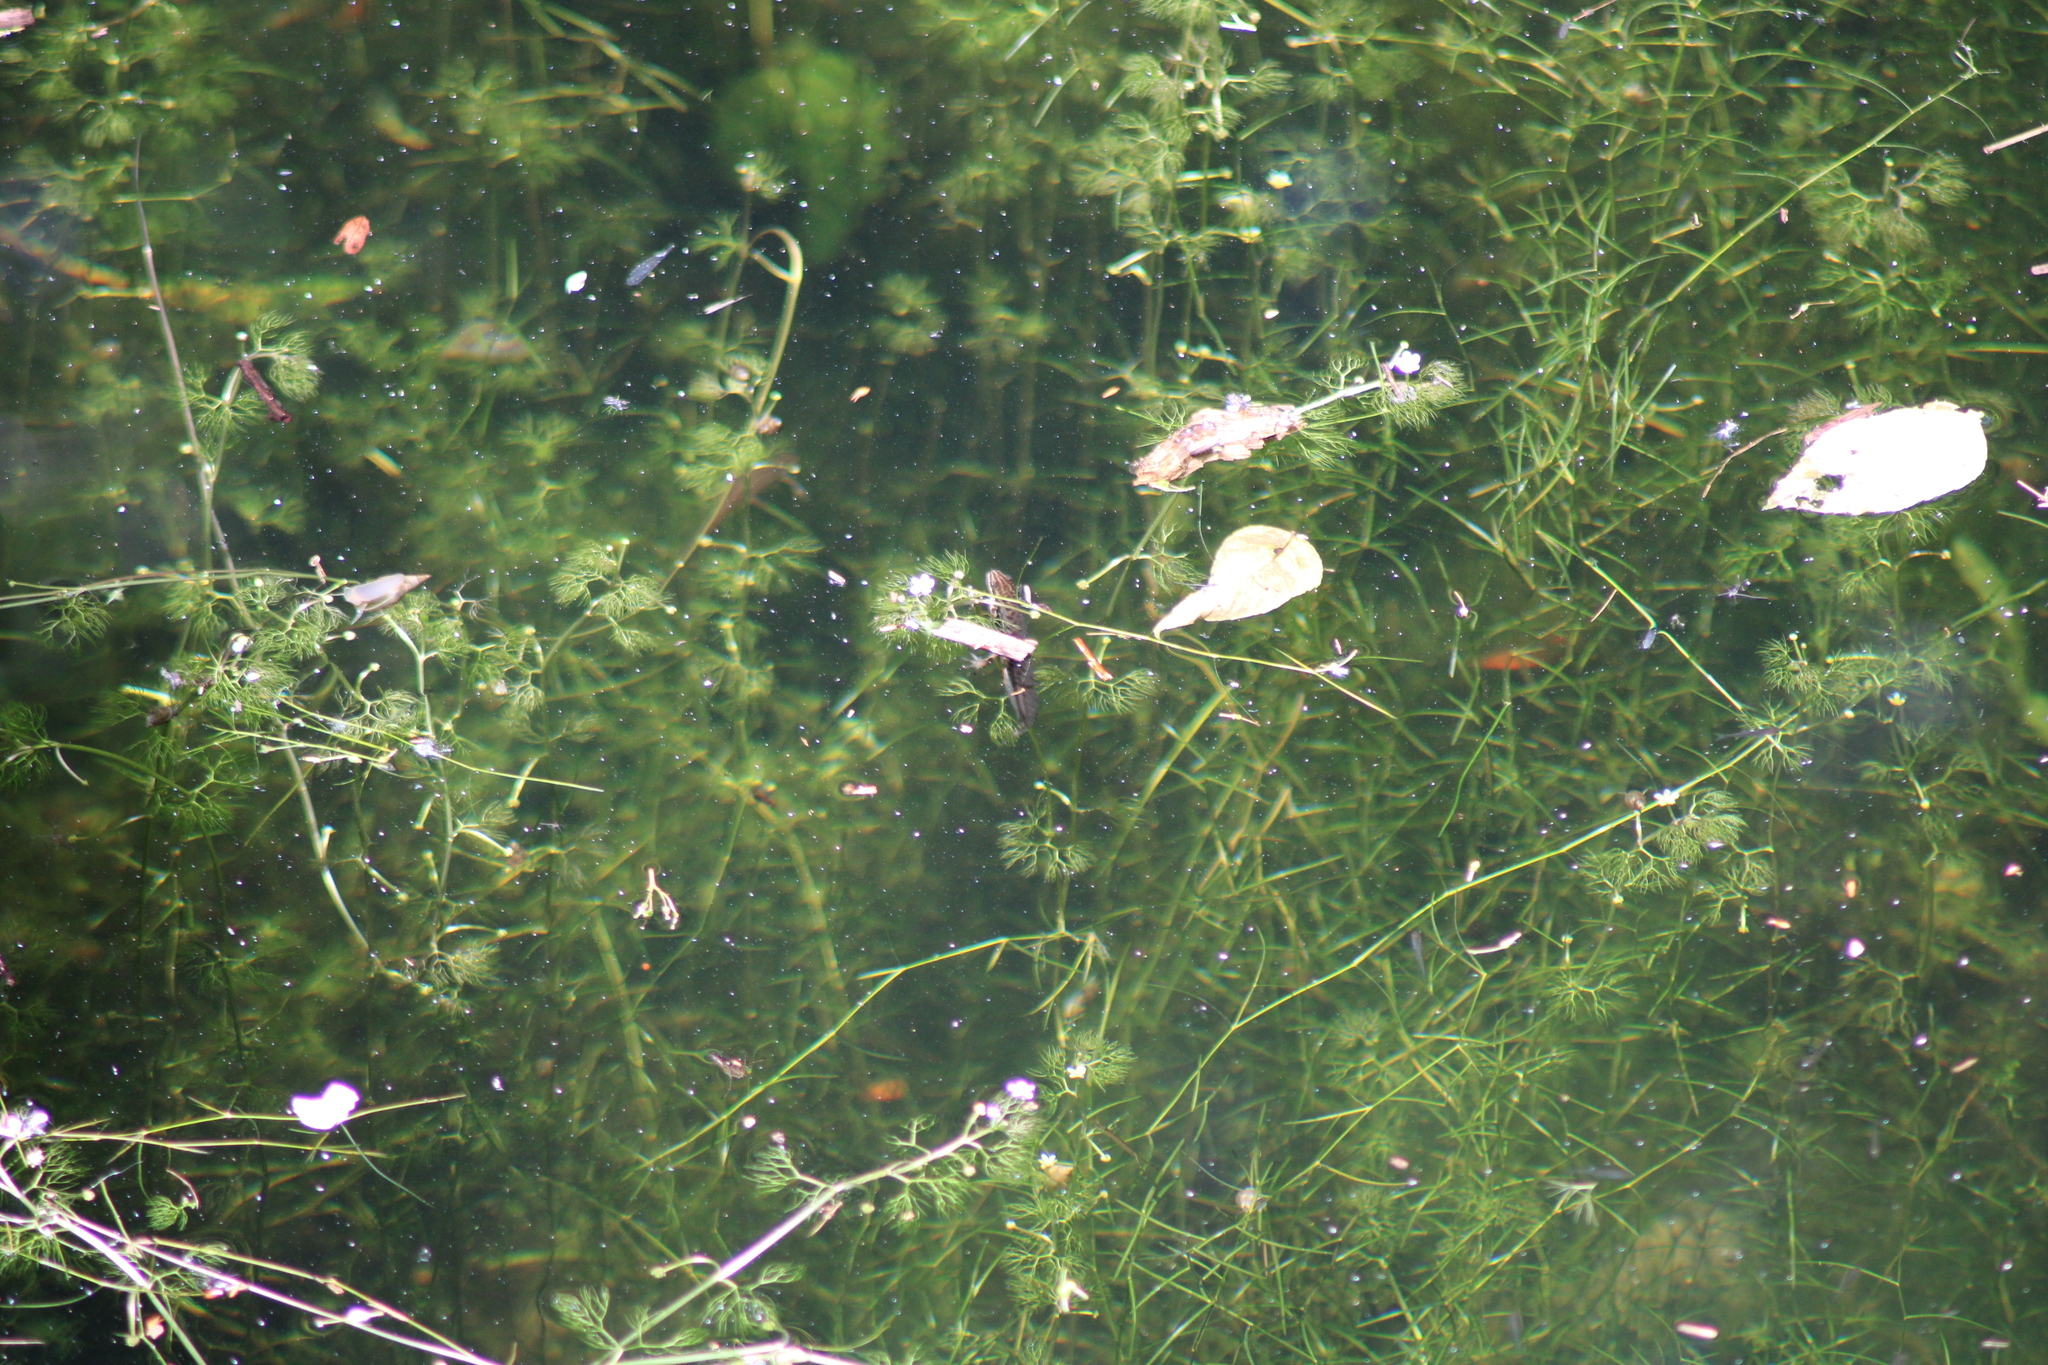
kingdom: Animalia
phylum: Chordata
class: Amphibia
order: Caudata
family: Salamandridae
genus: Lissotriton
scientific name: Lissotriton vulgaris
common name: Smooth newt
